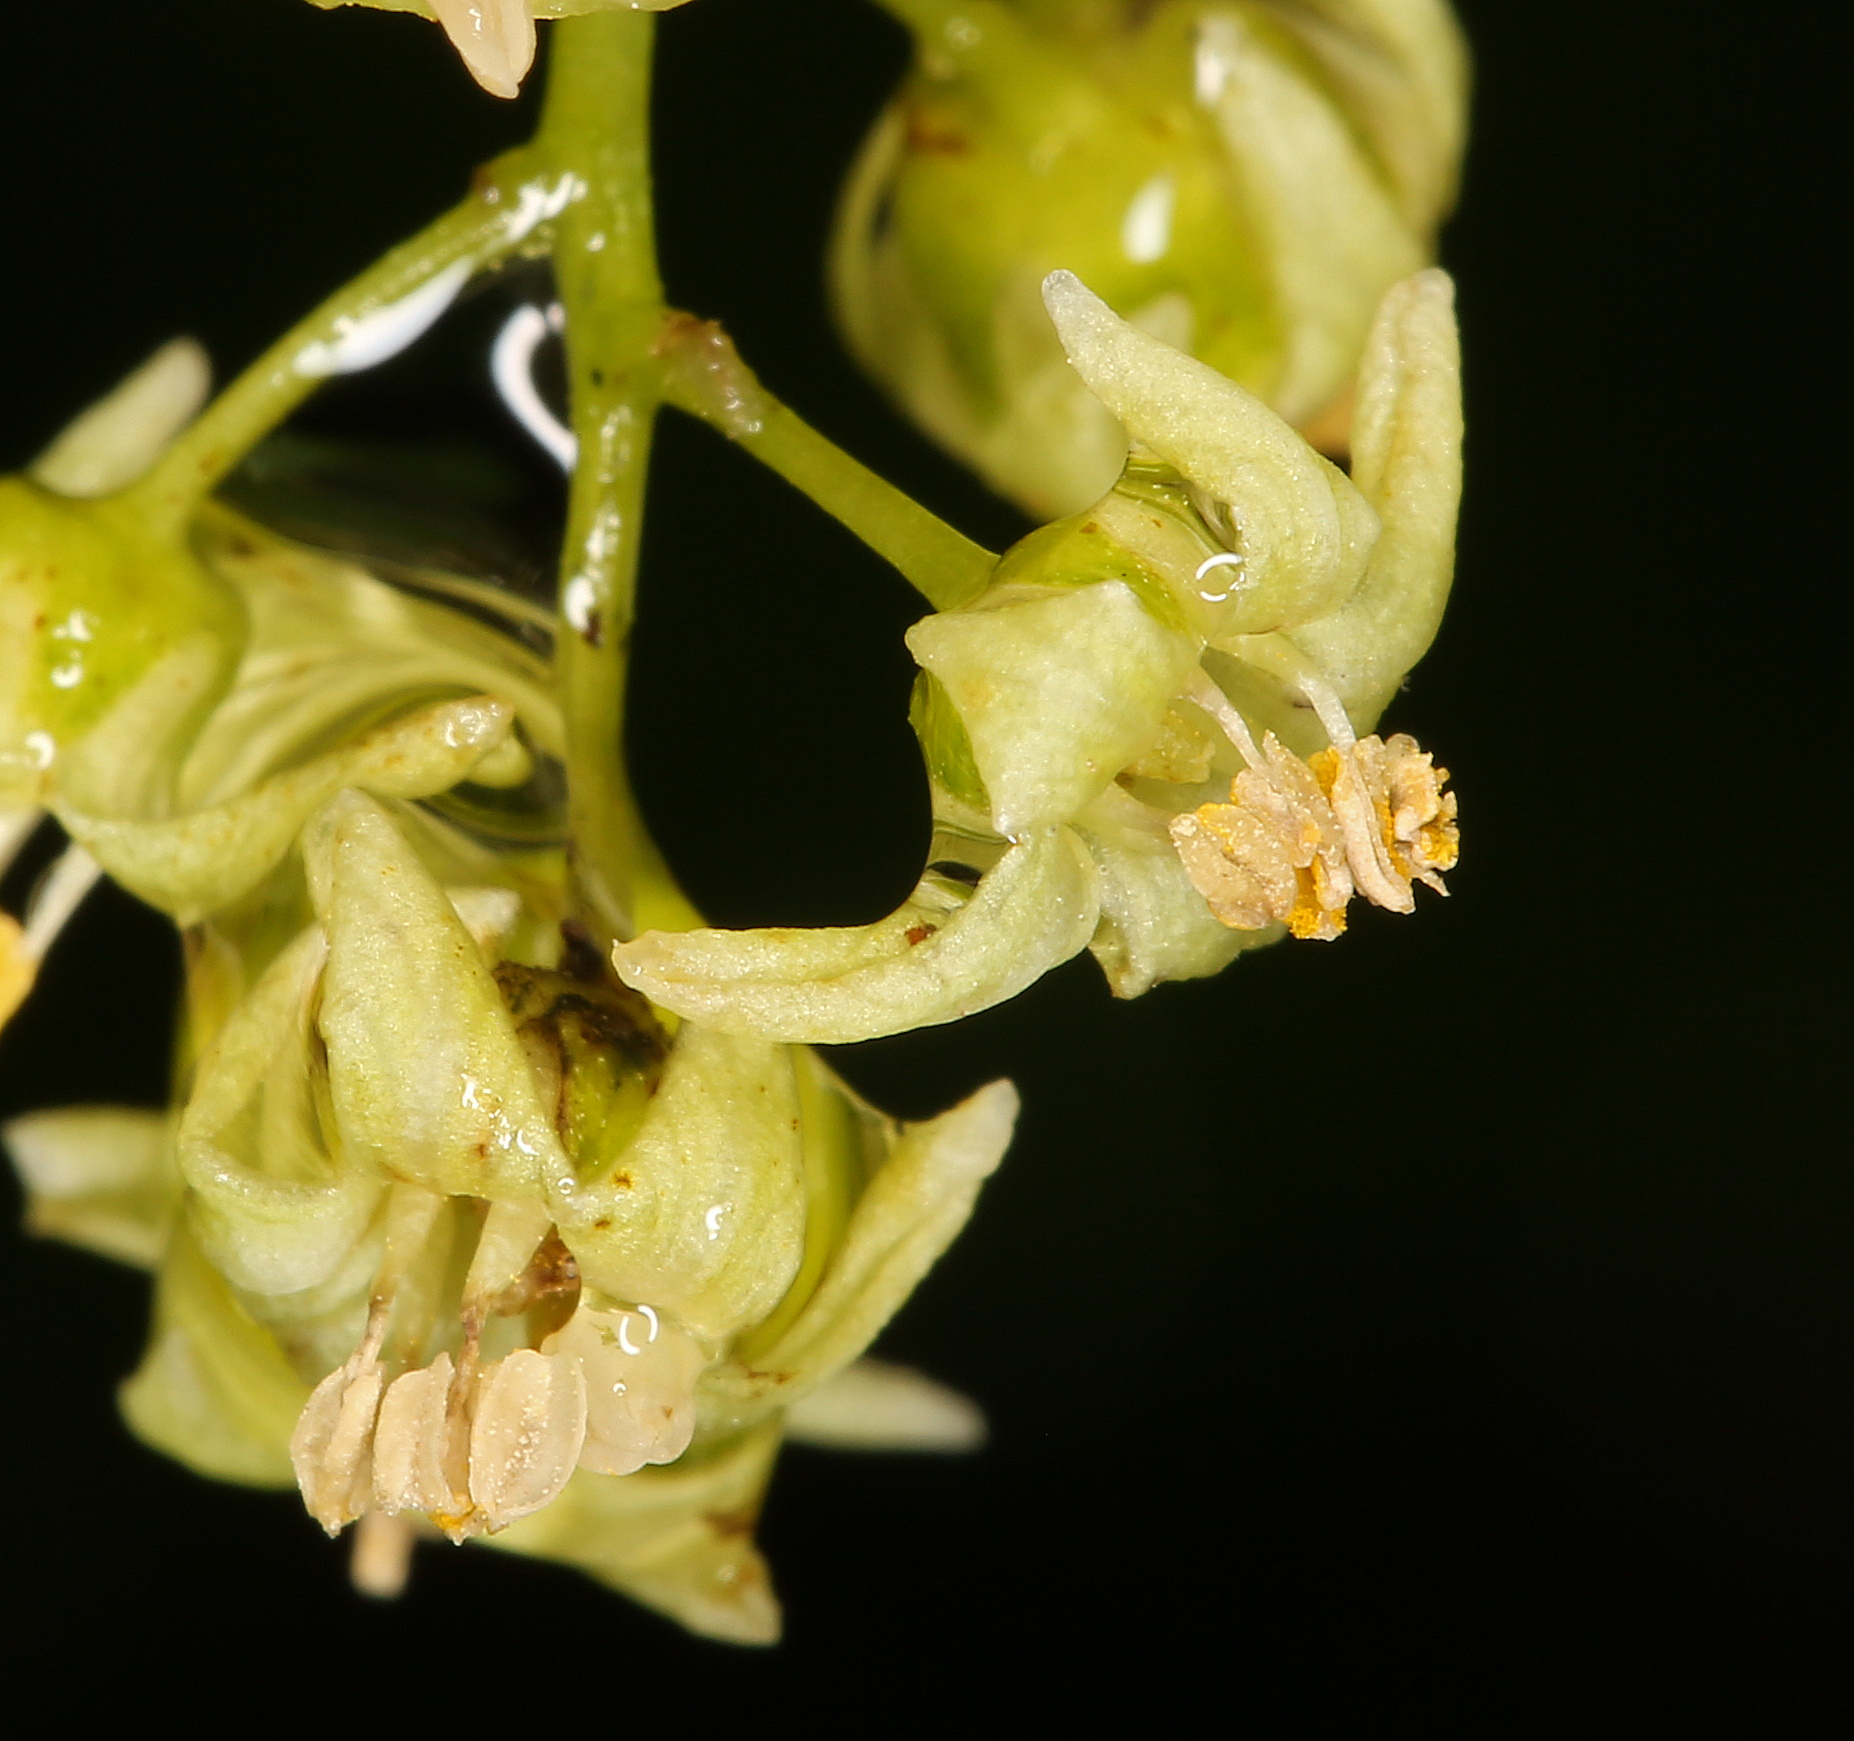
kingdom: Plantae
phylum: Tracheophyta
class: Magnoliopsida
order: Sapindales
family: Anacardiaceae
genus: Toxicodendron
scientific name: Toxicodendron diversilobum
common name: Pacific poison-oak
